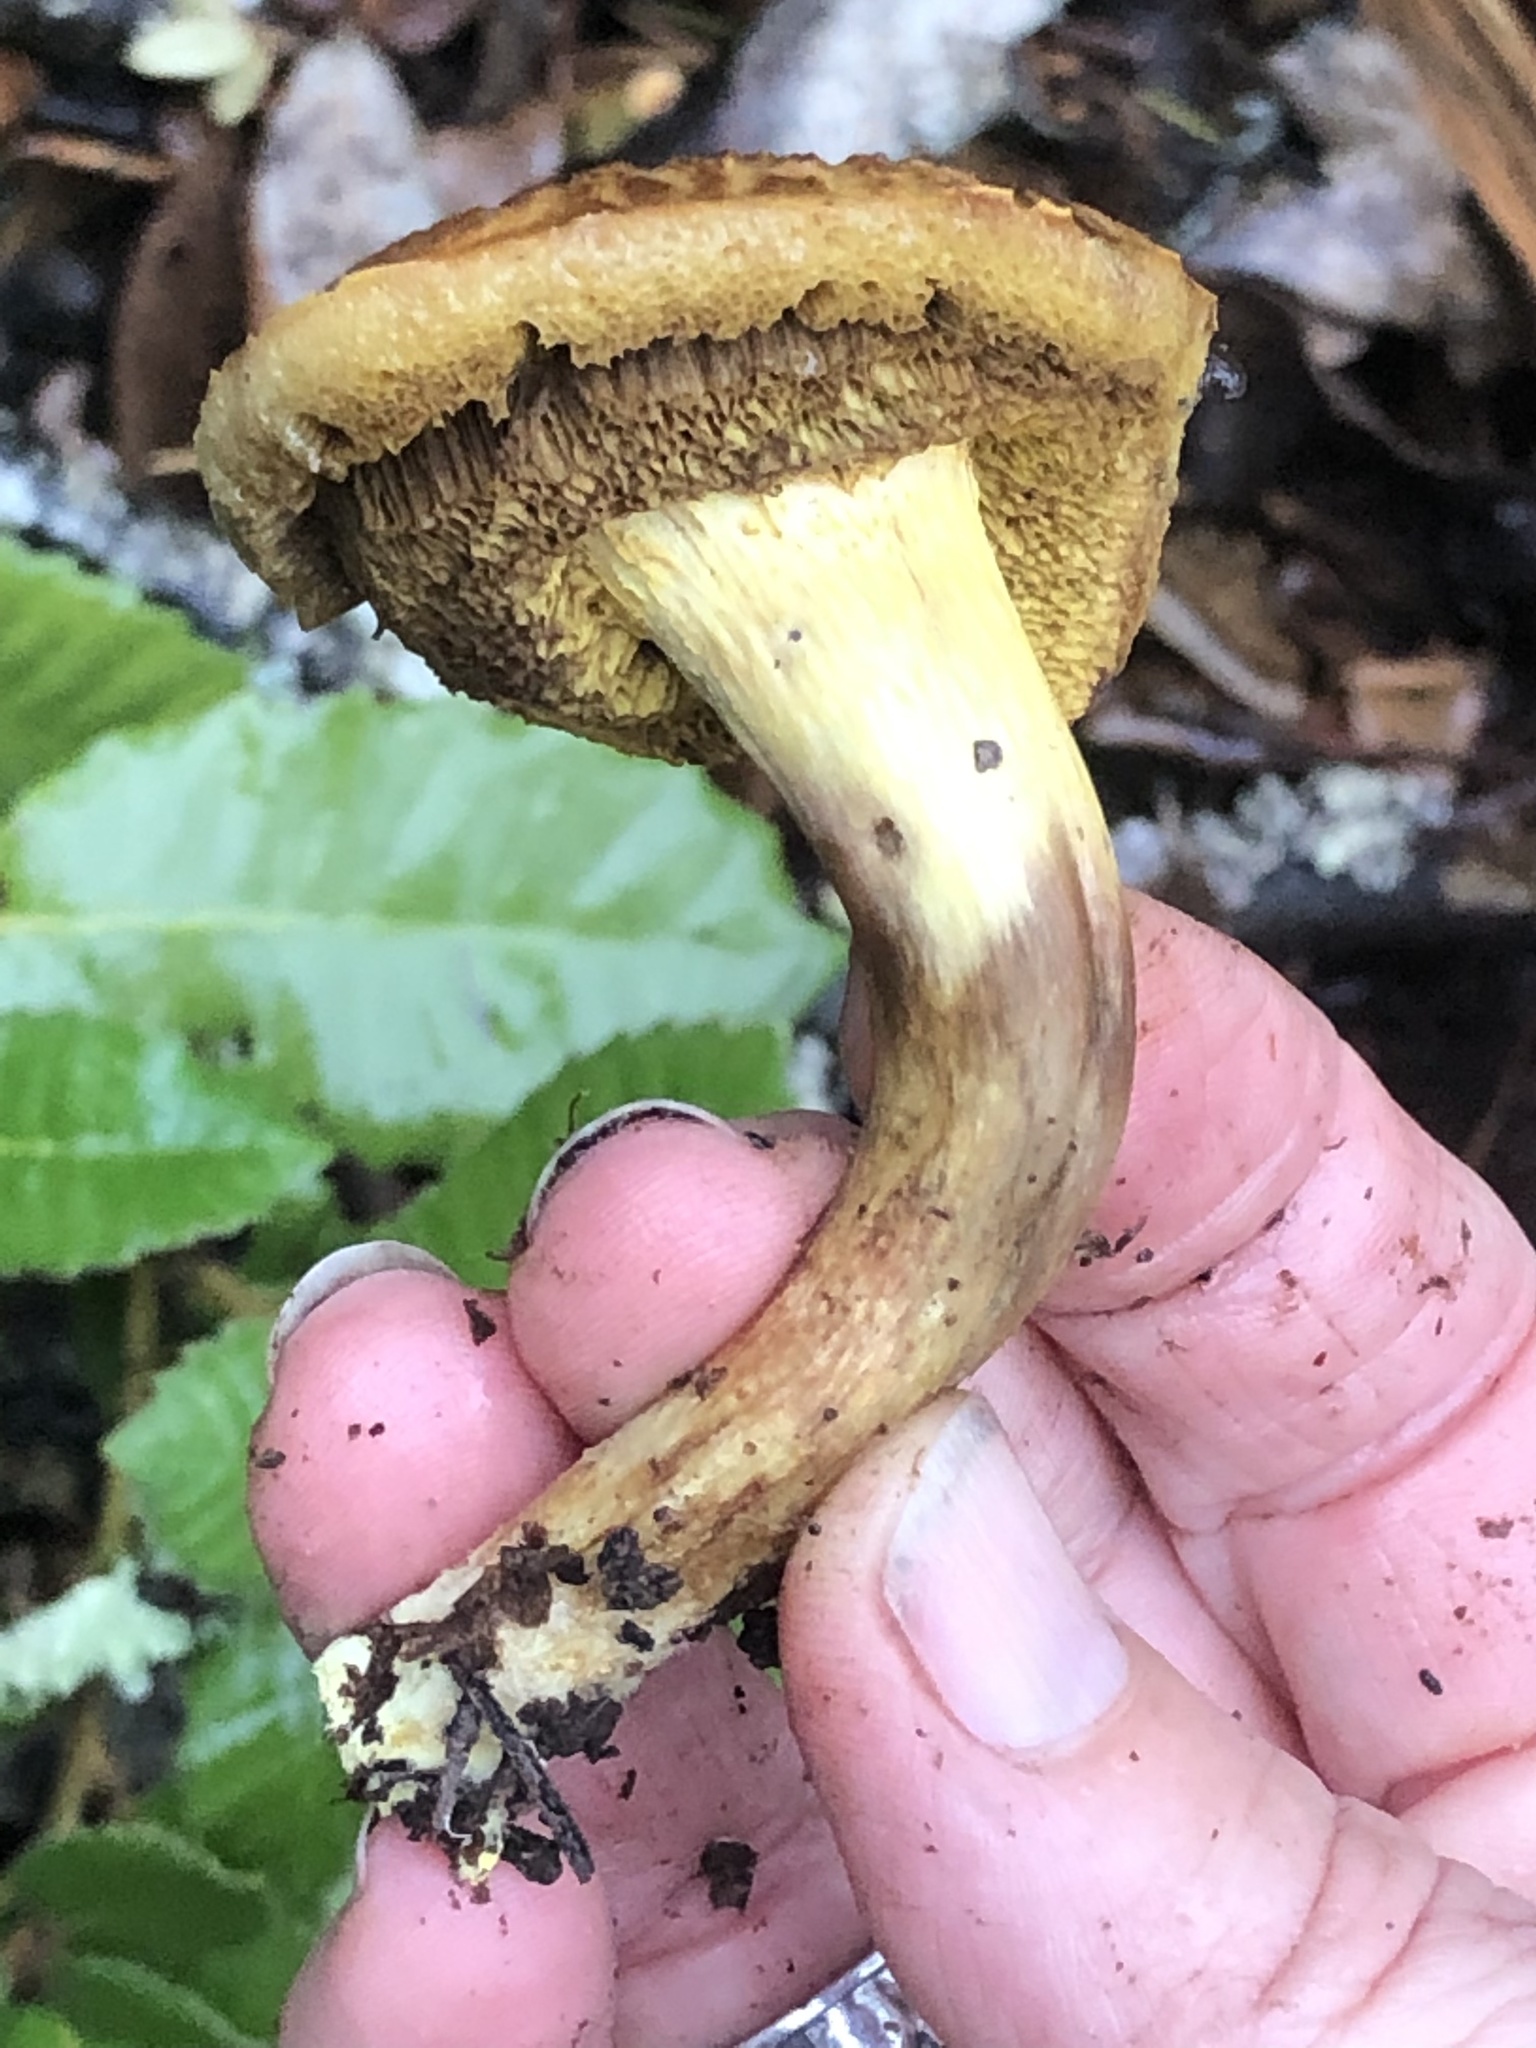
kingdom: Fungi
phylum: Basidiomycota
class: Agaricomycetes
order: Boletales
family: Boletaceae
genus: Xerocomus
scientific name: Xerocomus subtomentosus
